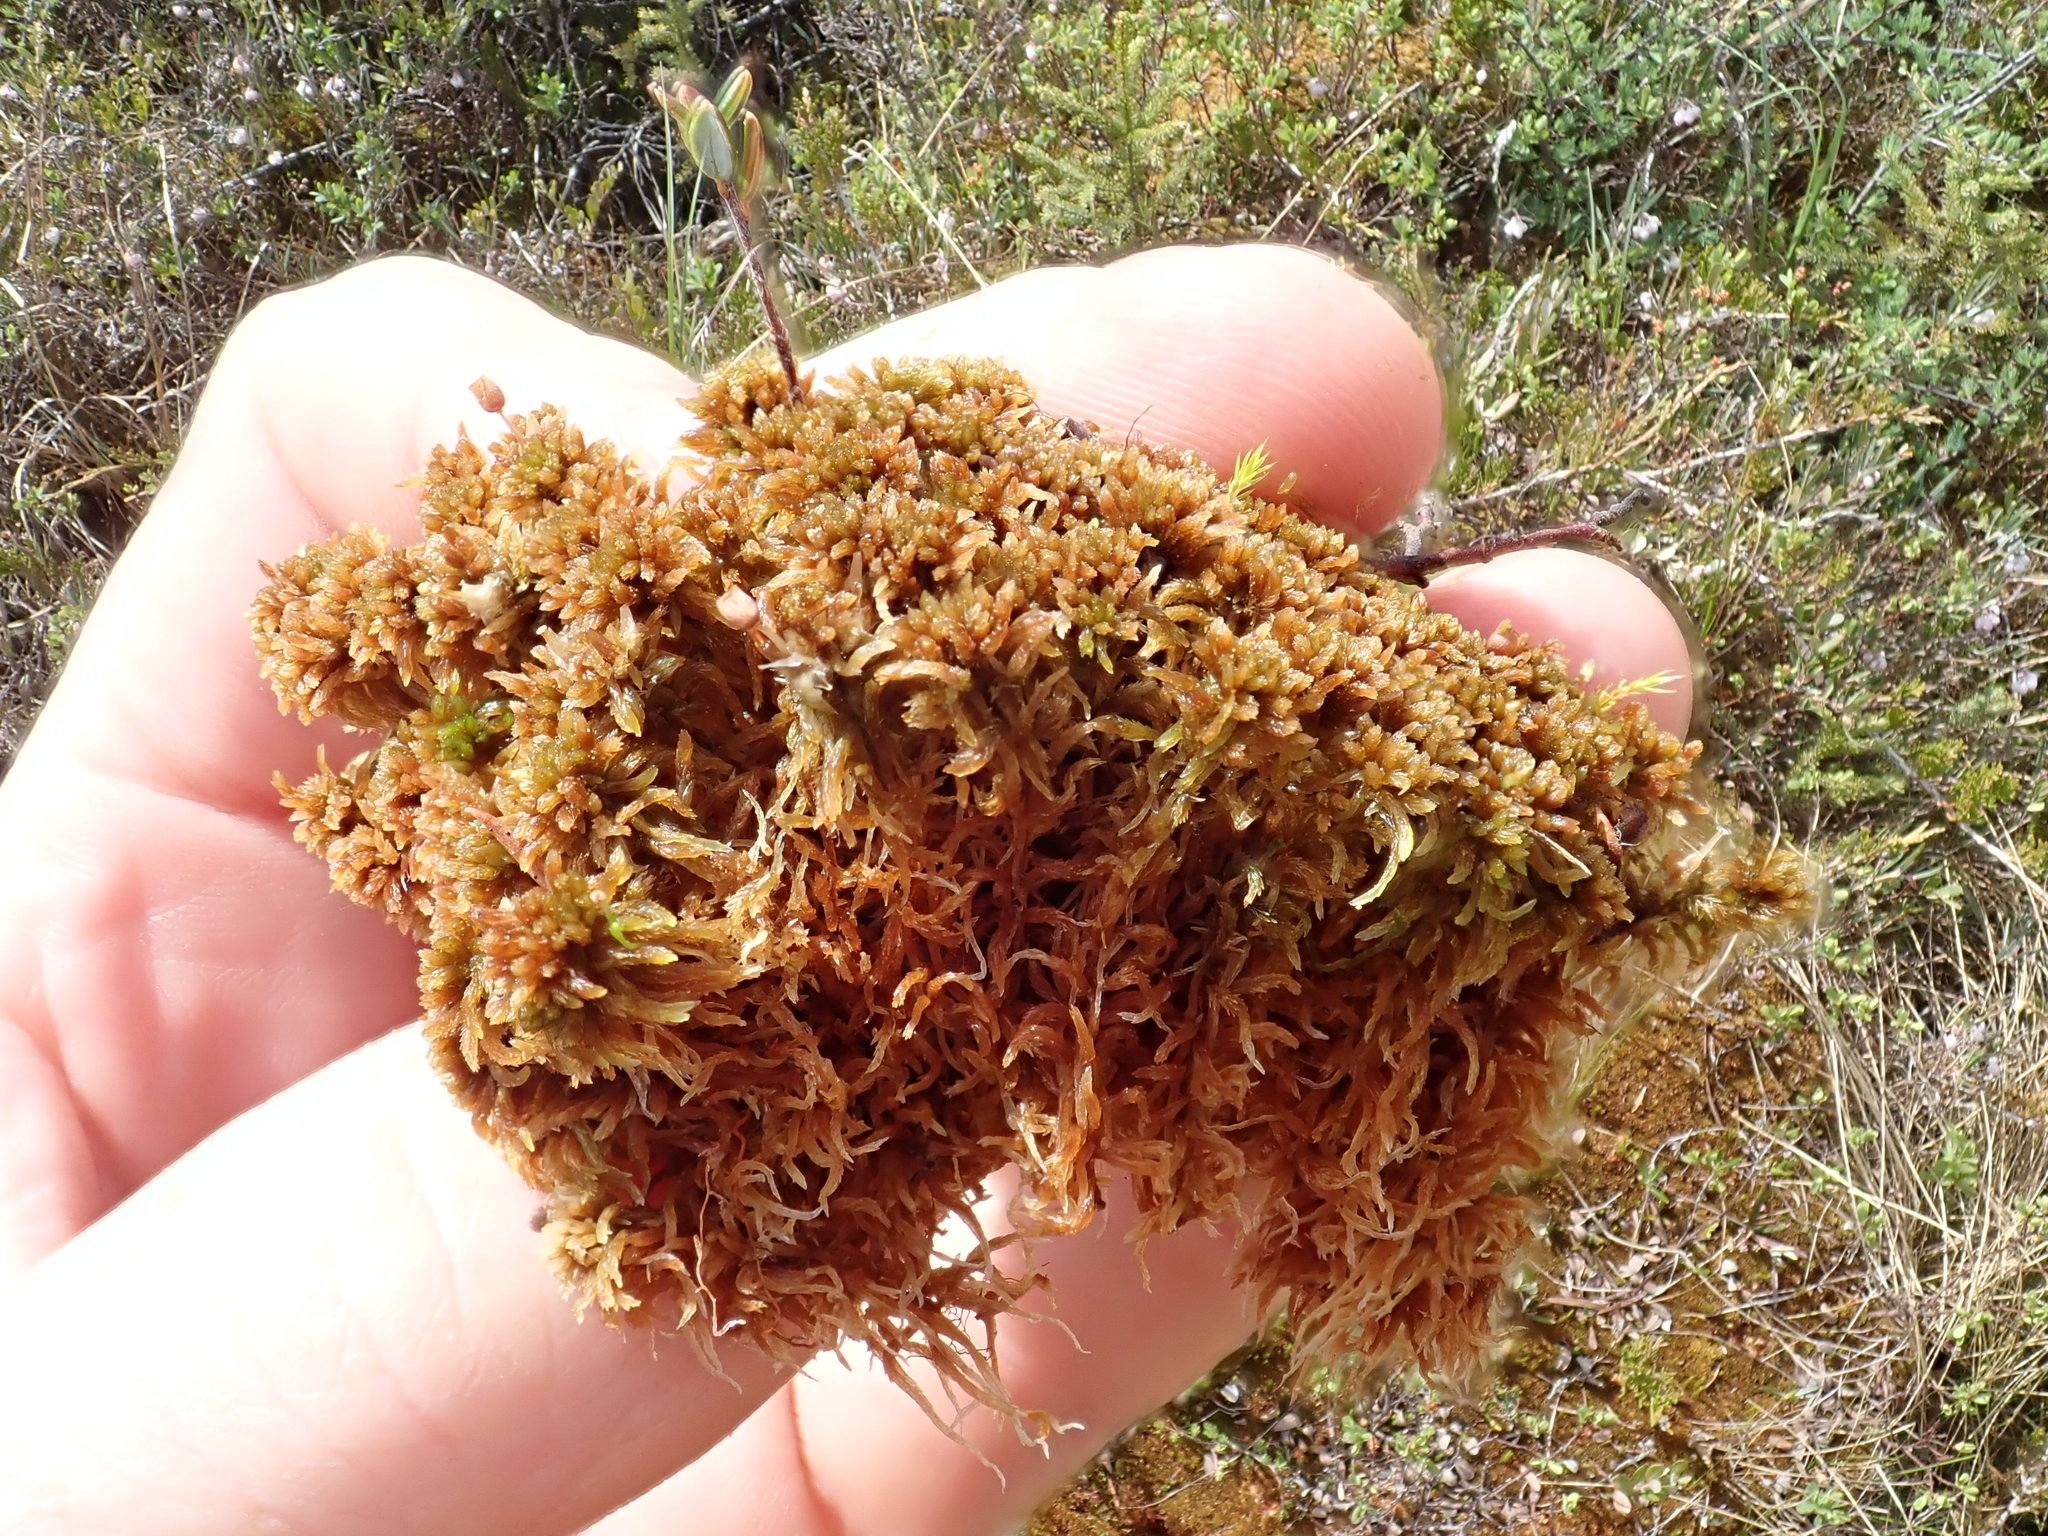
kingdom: Plantae
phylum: Bryophyta
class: Sphagnopsida
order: Sphagnales
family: Sphagnaceae
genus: Sphagnum
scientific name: Sphagnum fuscum
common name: Brown peat moss
